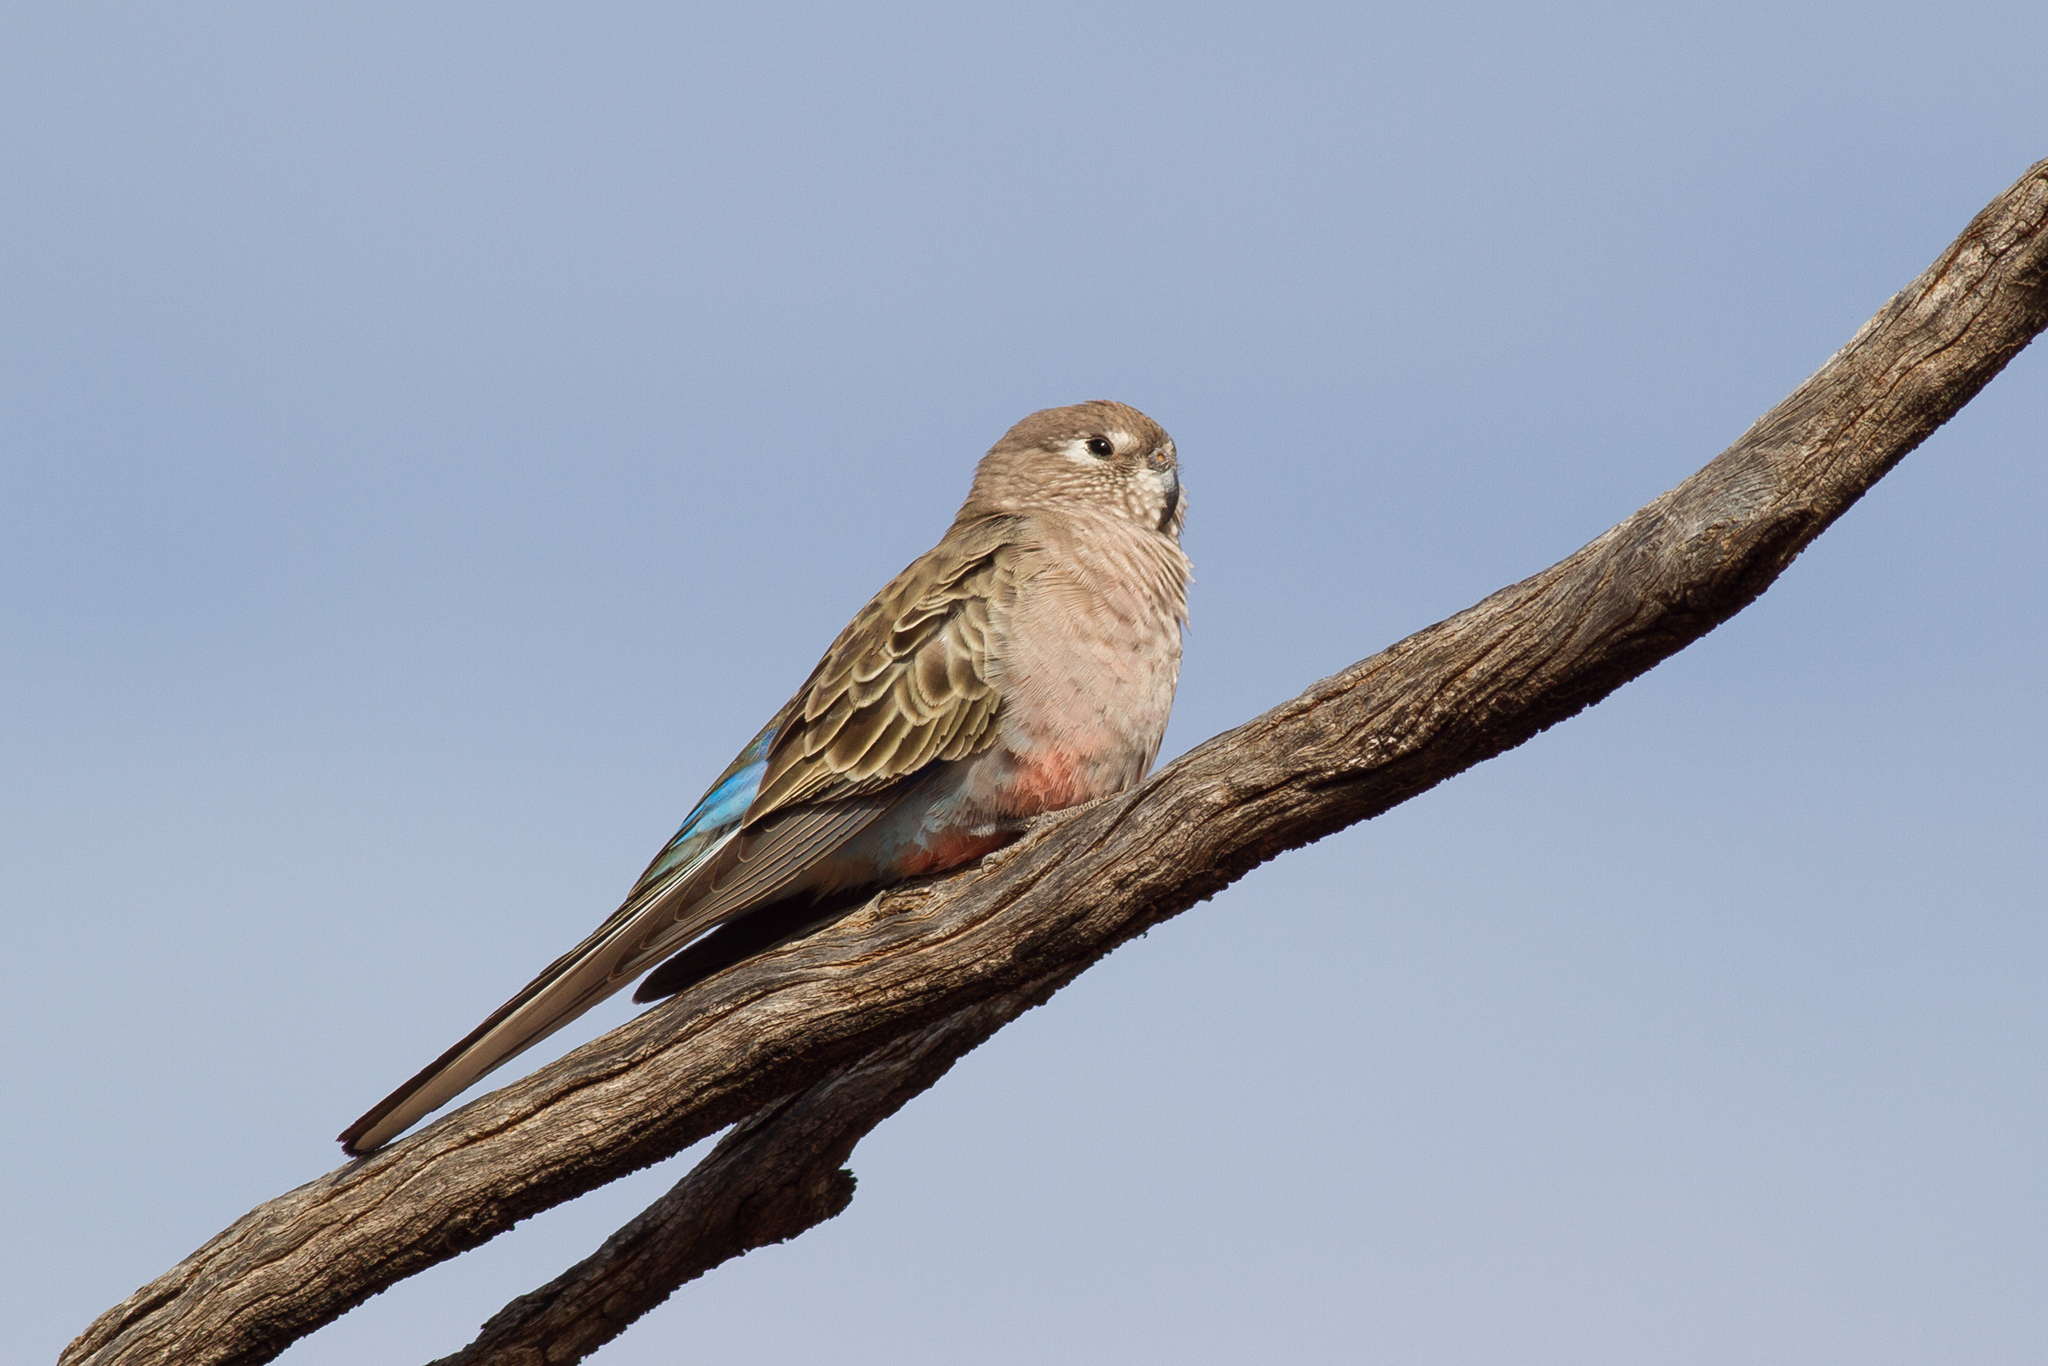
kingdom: Animalia
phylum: Chordata
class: Aves
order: Psittaciformes
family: Psittacidae
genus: Neopsephotus
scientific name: Neopsephotus bourkii
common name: Bourke's parrot
